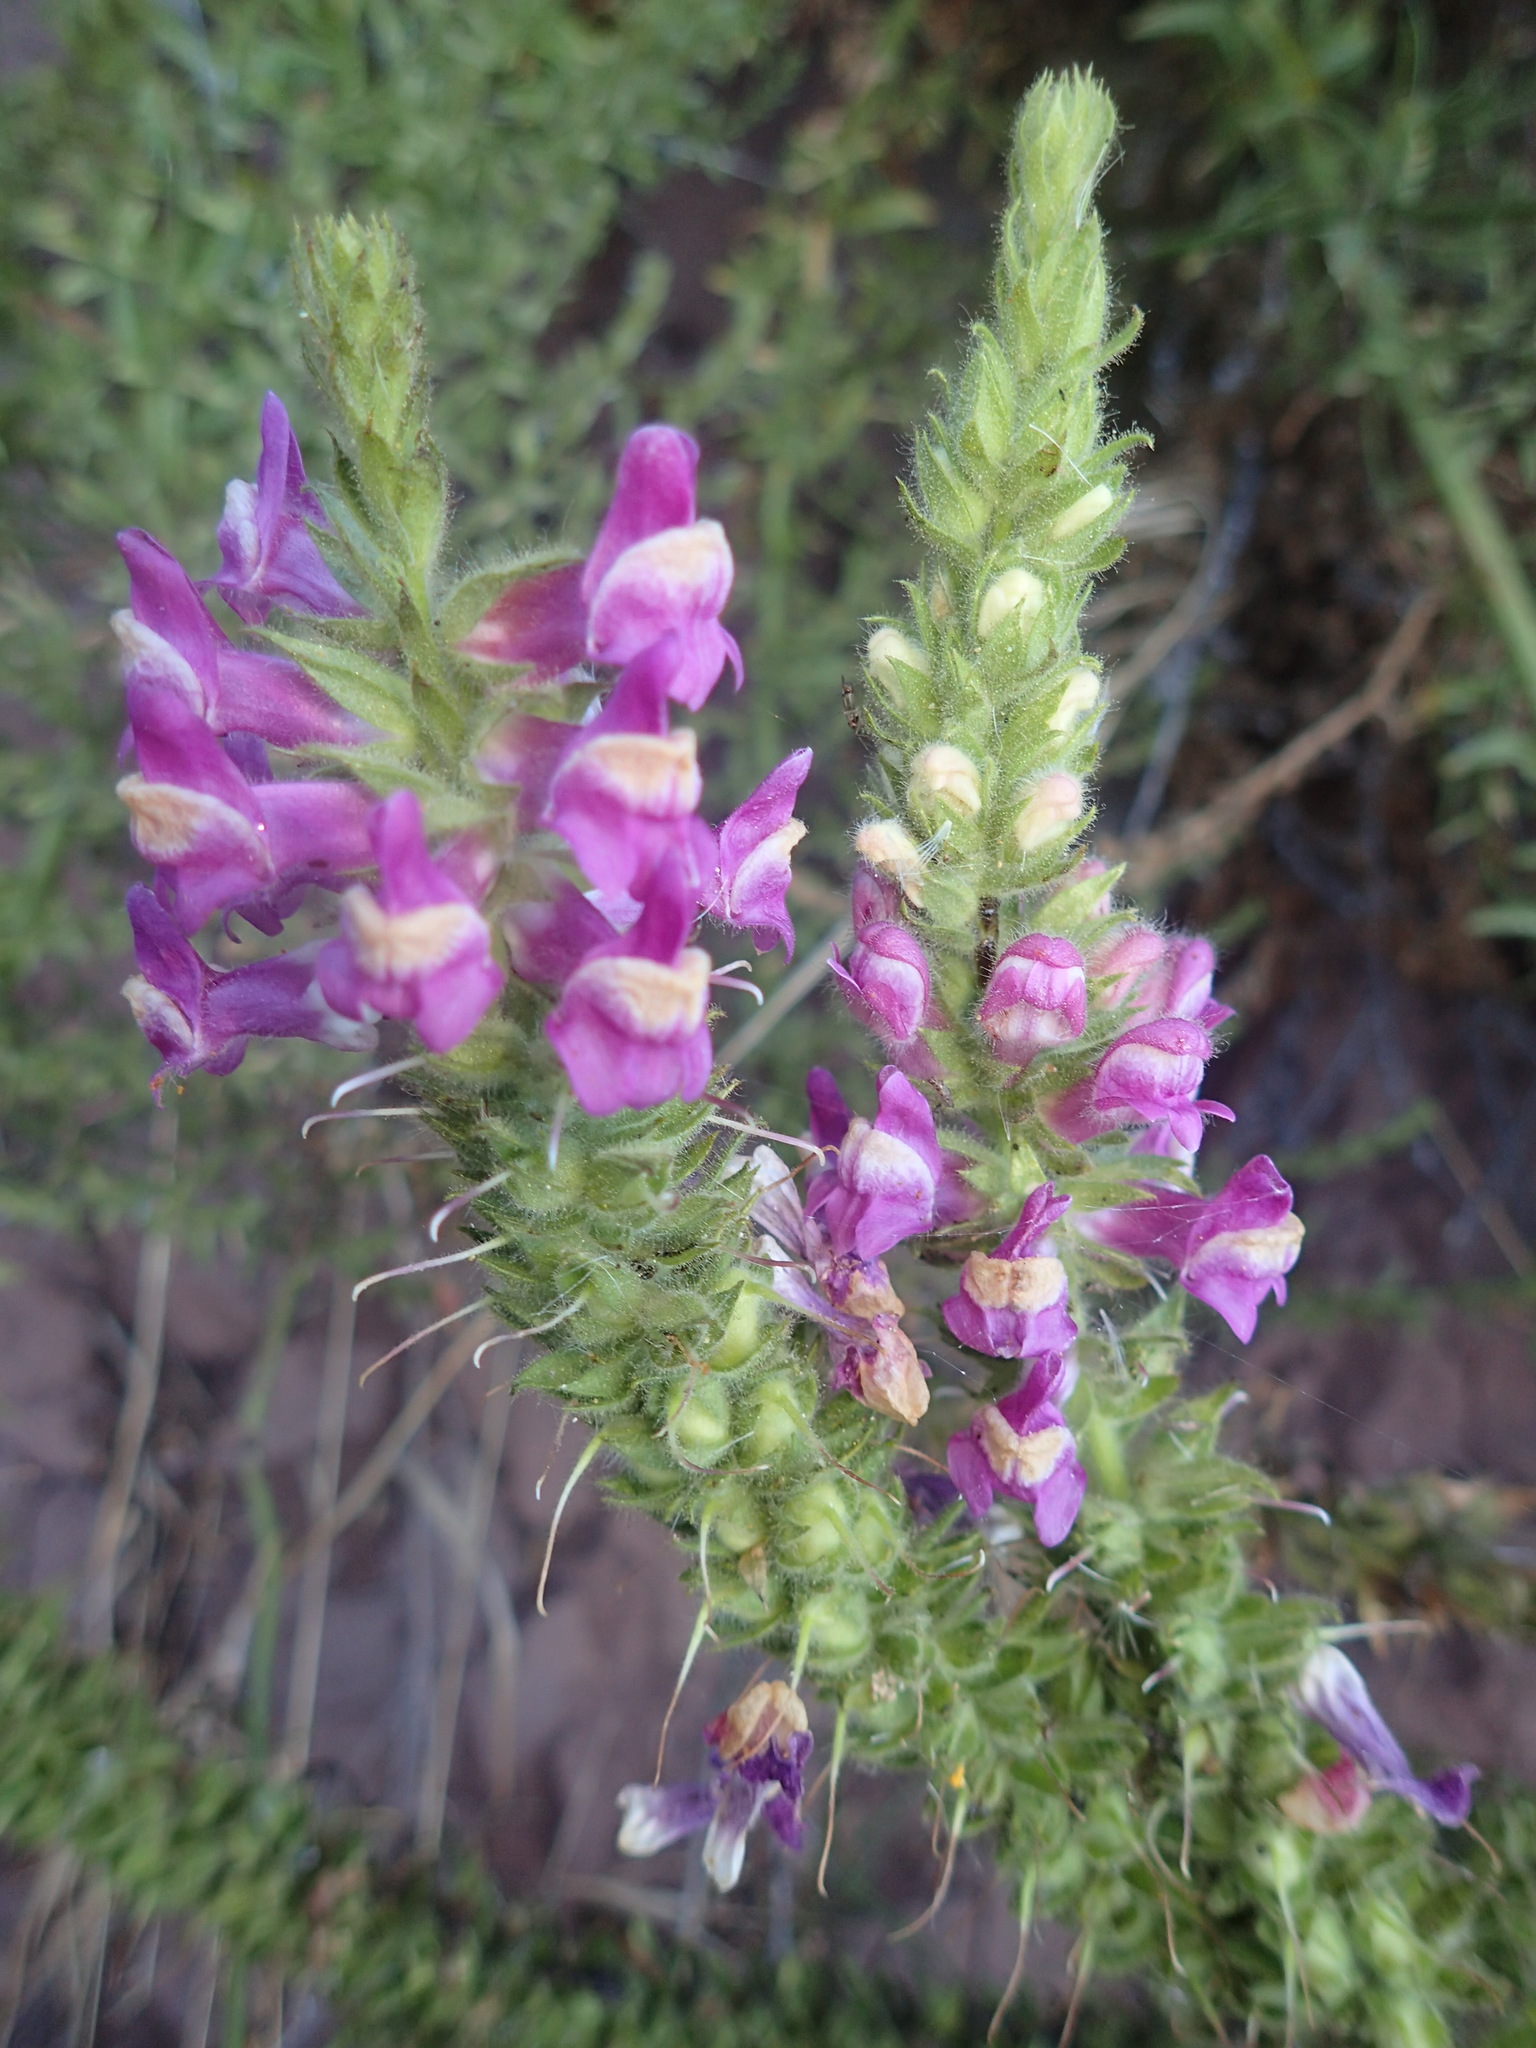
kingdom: Plantae
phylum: Tracheophyta
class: Magnoliopsida
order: Lamiales
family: Plantaginaceae
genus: Sairocarpus
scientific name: Sairocarpus multiflorus
